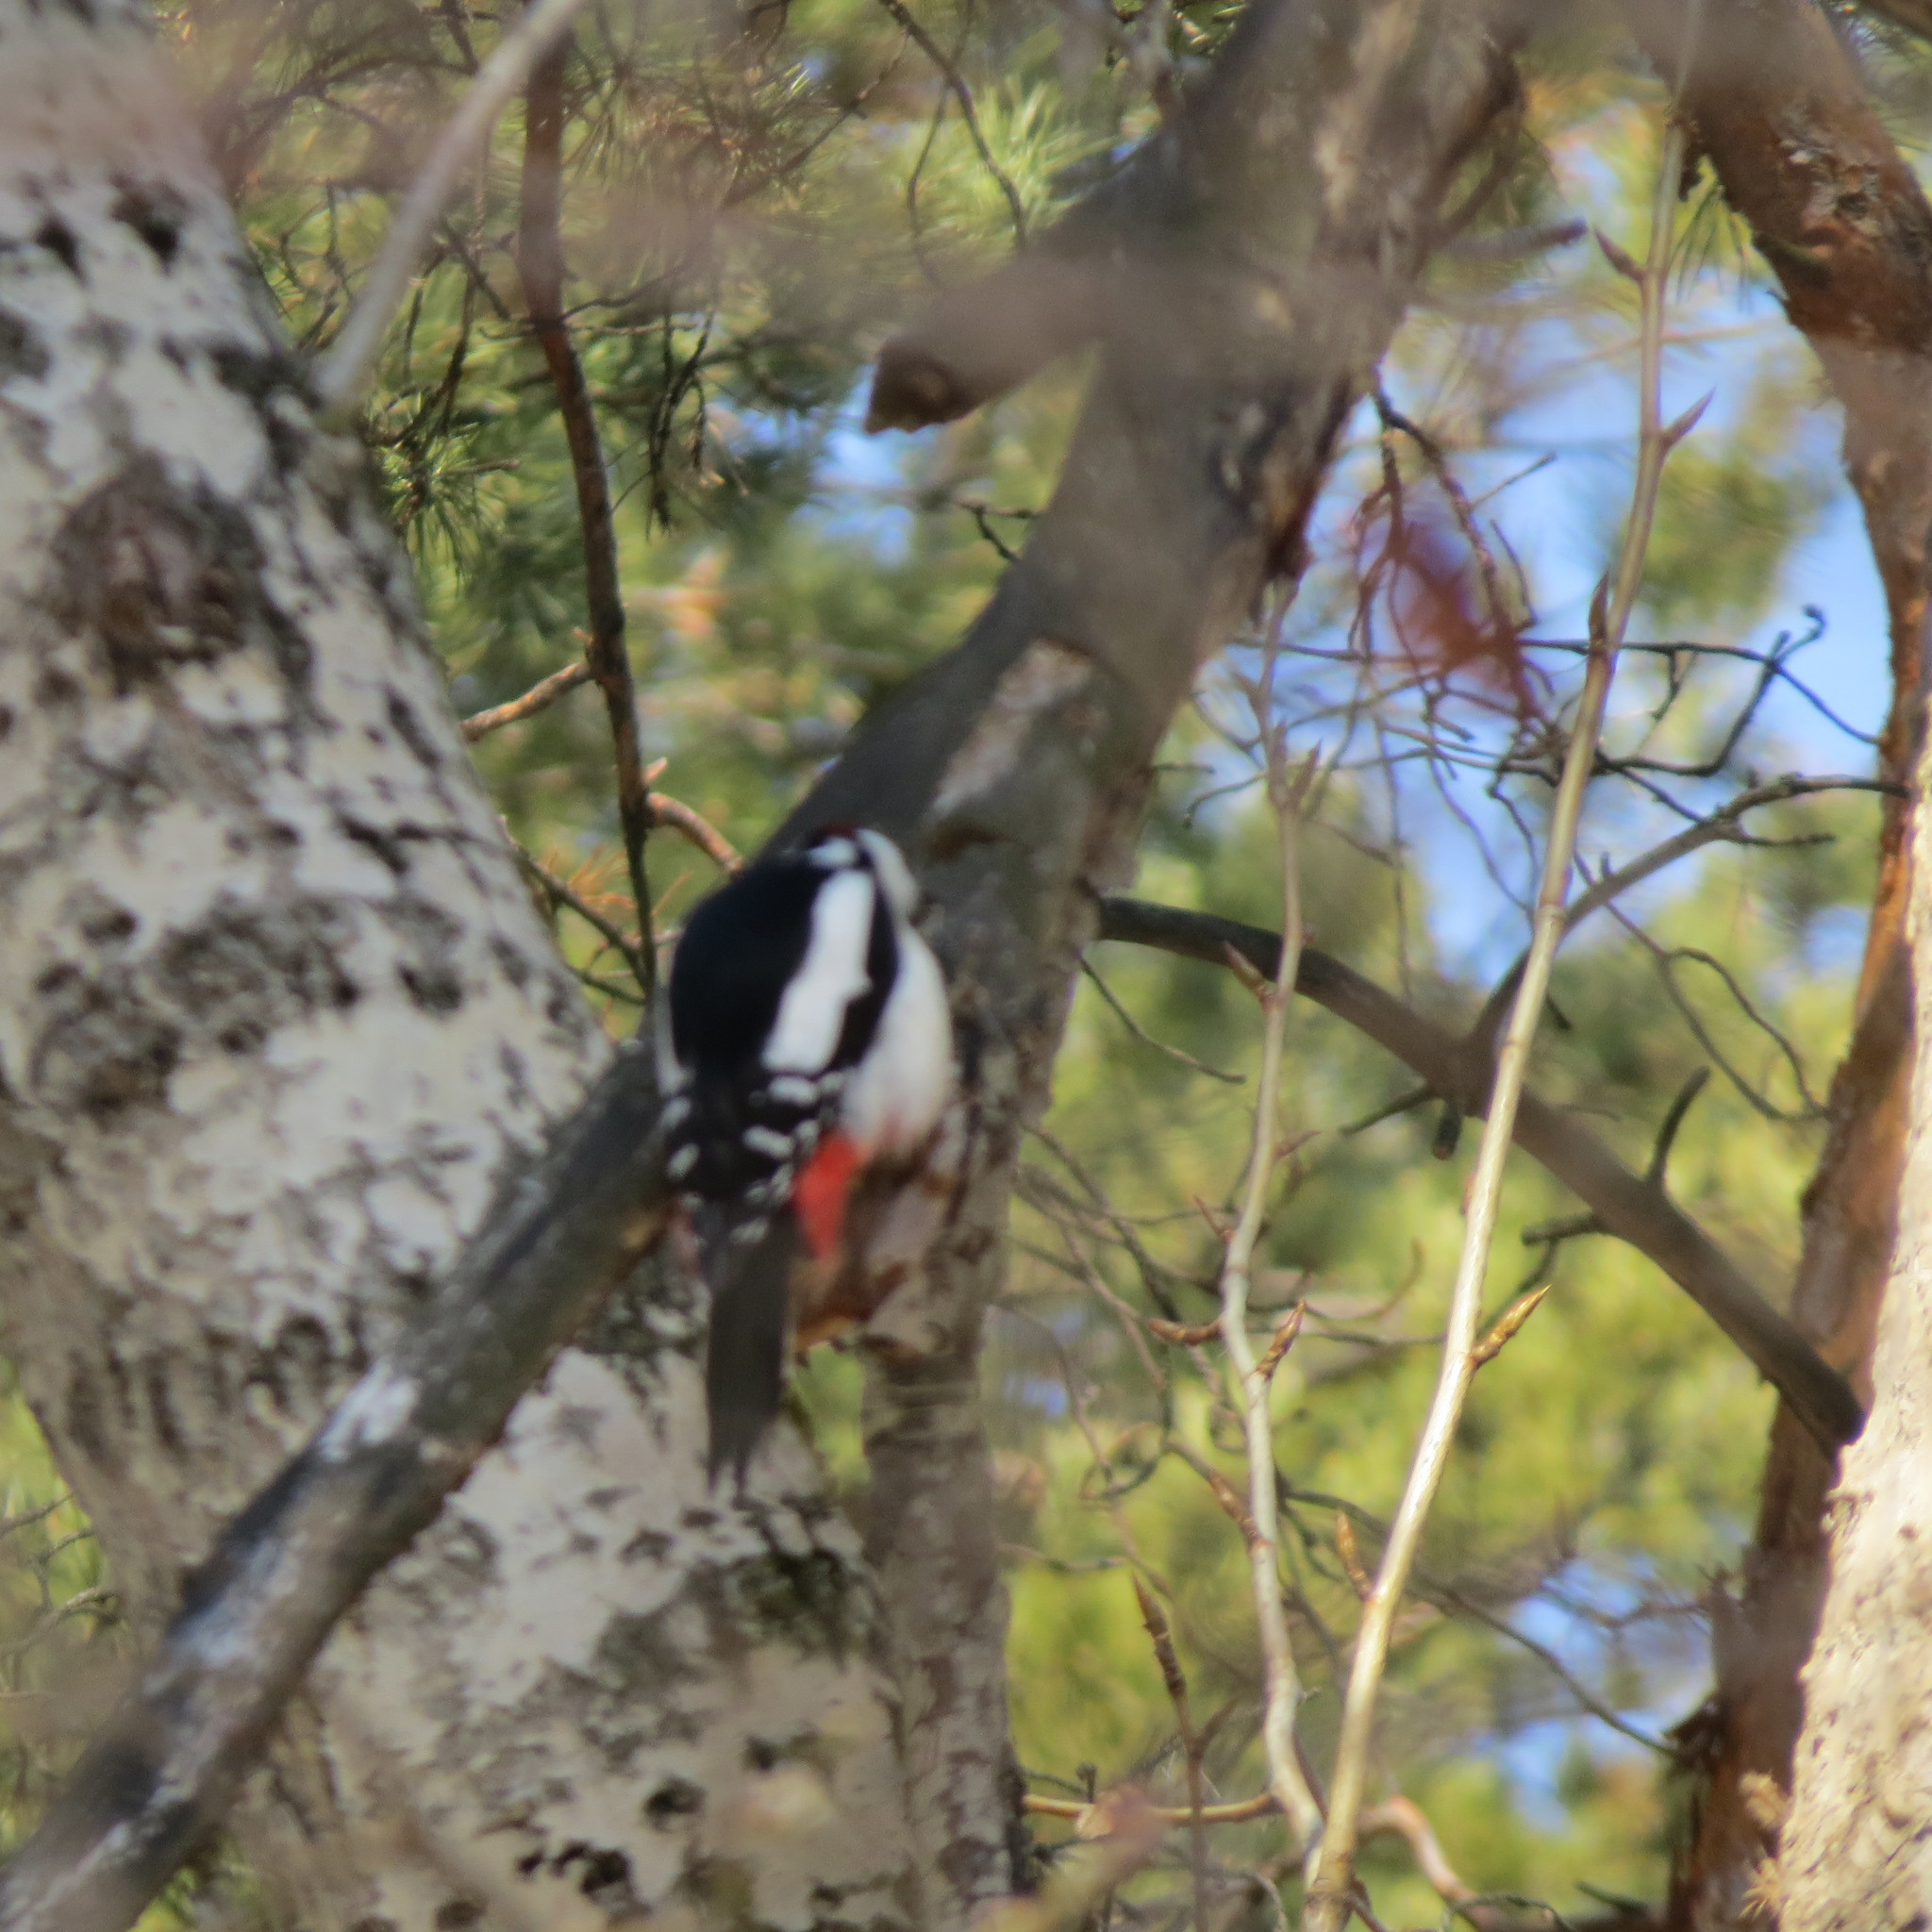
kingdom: Animalia
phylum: Chordata
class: Aves
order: Piciformes
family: Picidae
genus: Dendrocopos
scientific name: Dendrocopos major
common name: Great spotted woodpecker
